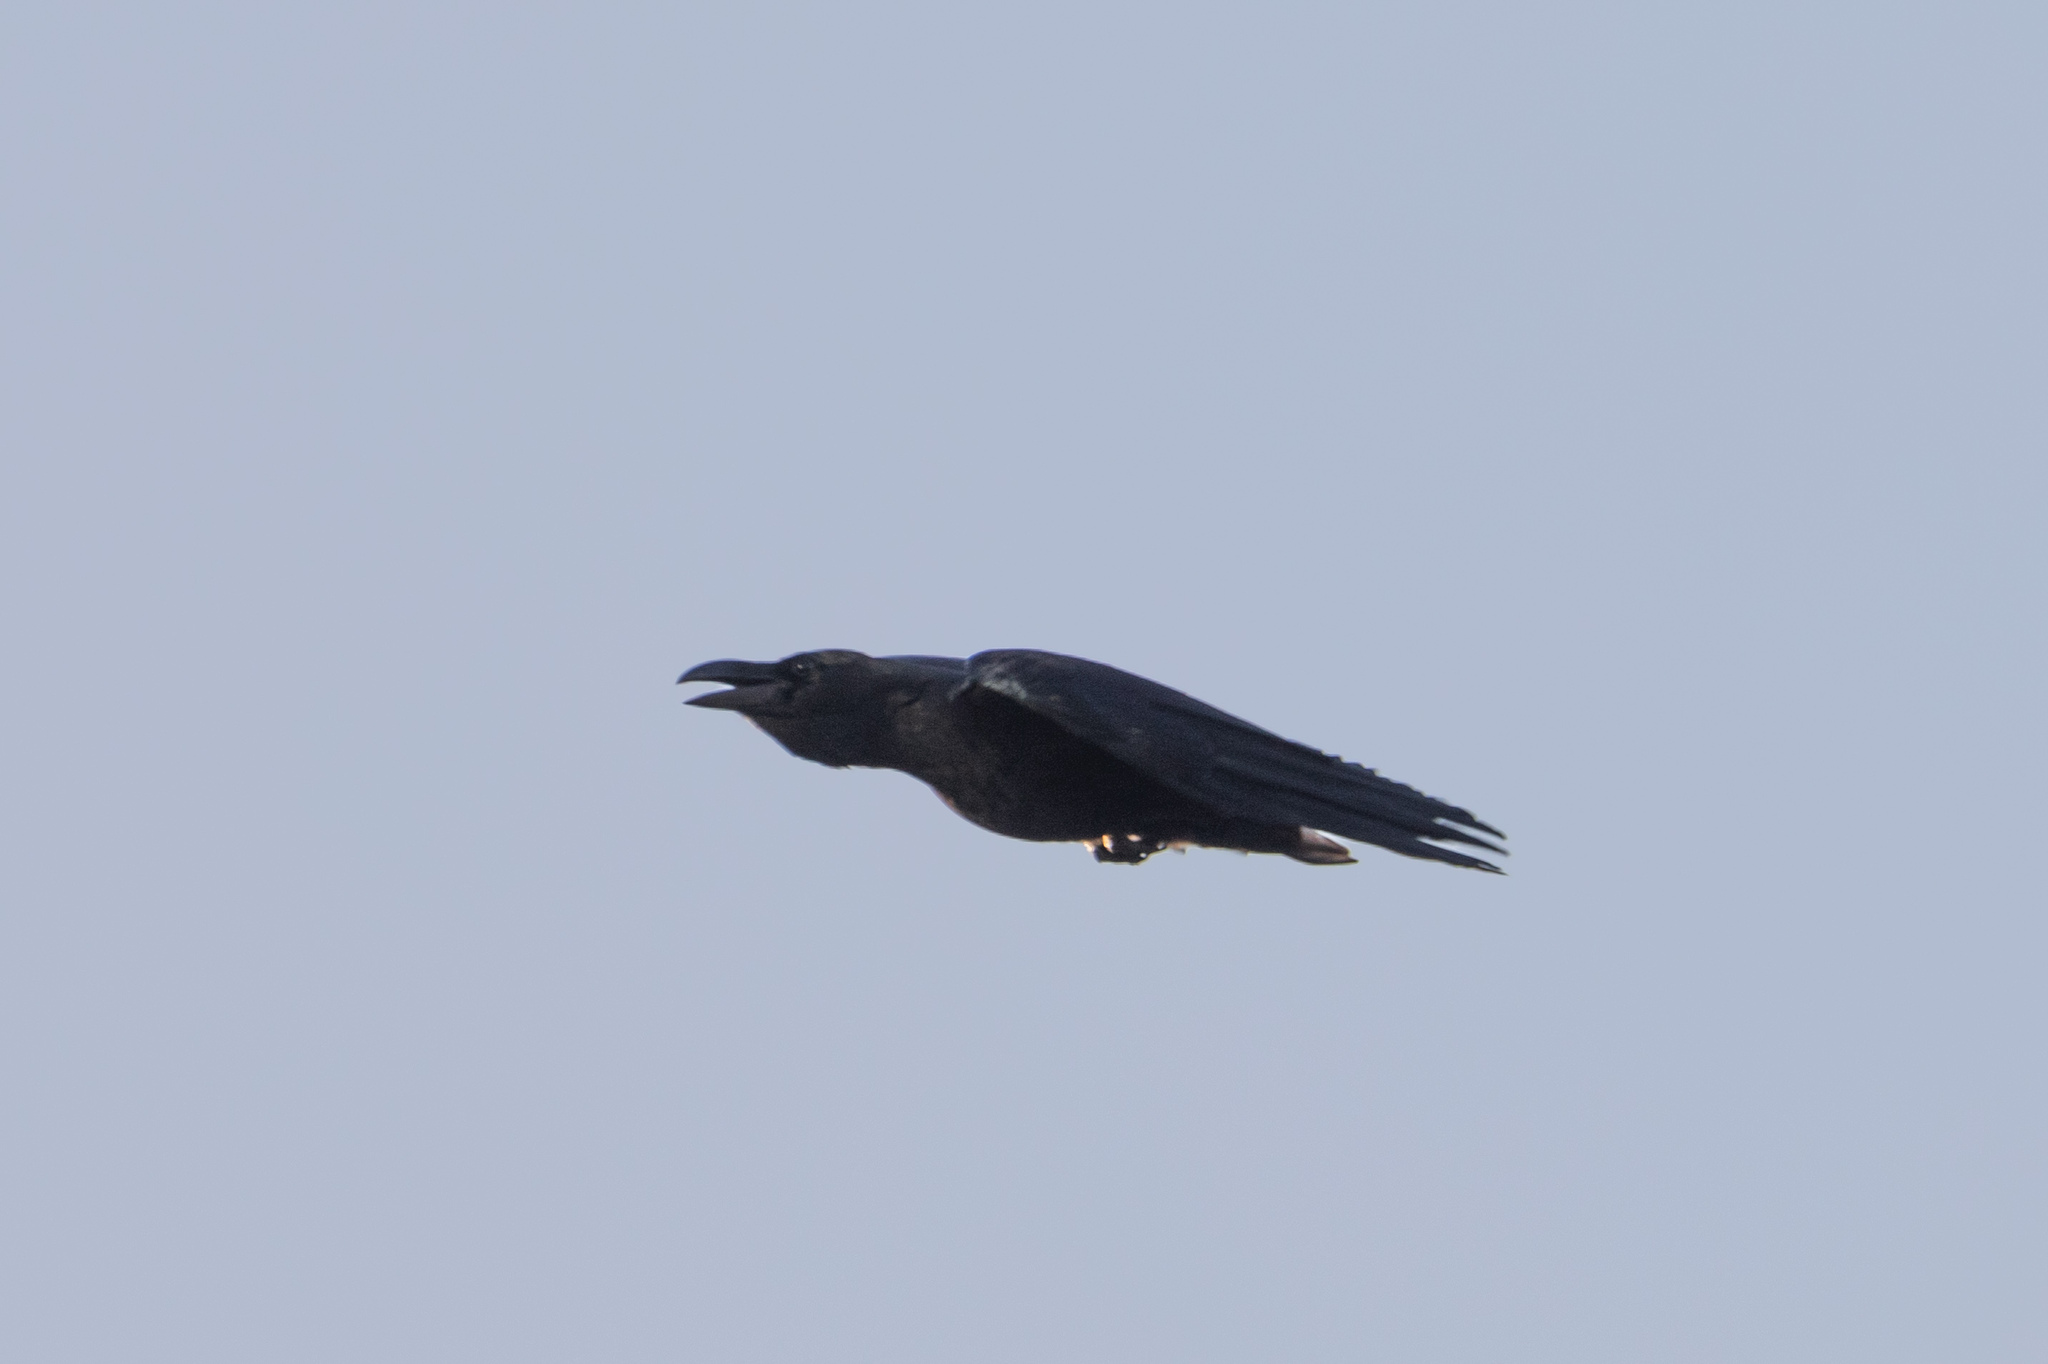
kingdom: Animalia
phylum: Chordata
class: Aves
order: Passeriformes
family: Corvidae
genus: Corvus
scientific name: Corvus macrorhynchos
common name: Large-billed crow
